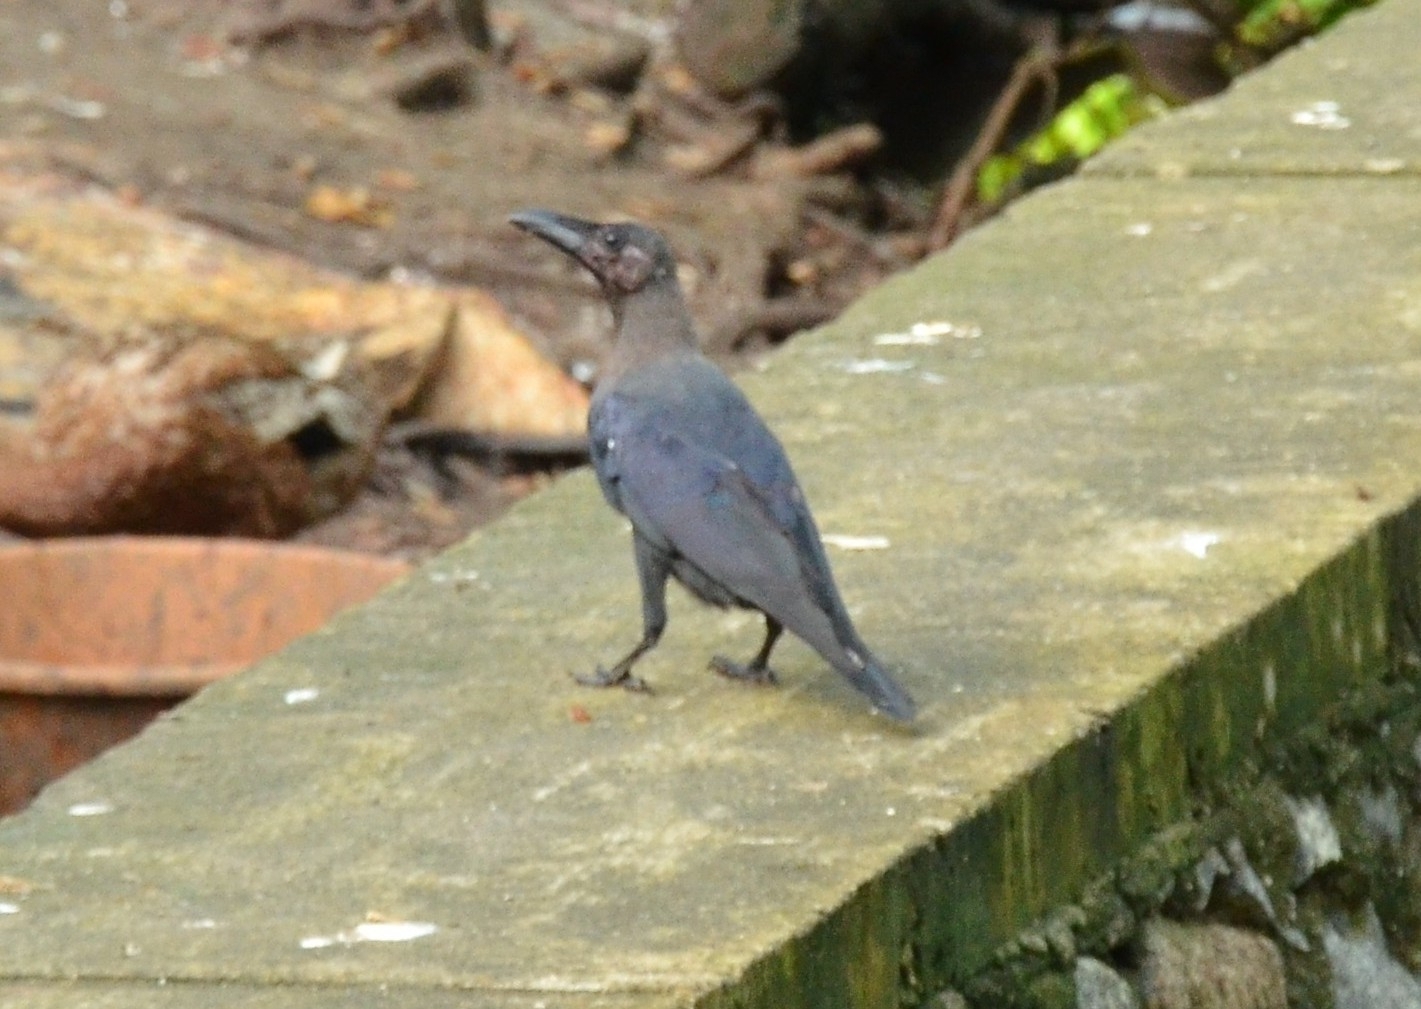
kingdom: Animalia
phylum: Chordata
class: Aves
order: Passeriformes
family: Corvidae
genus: Corvus
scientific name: Corvus splendens
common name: House crow
